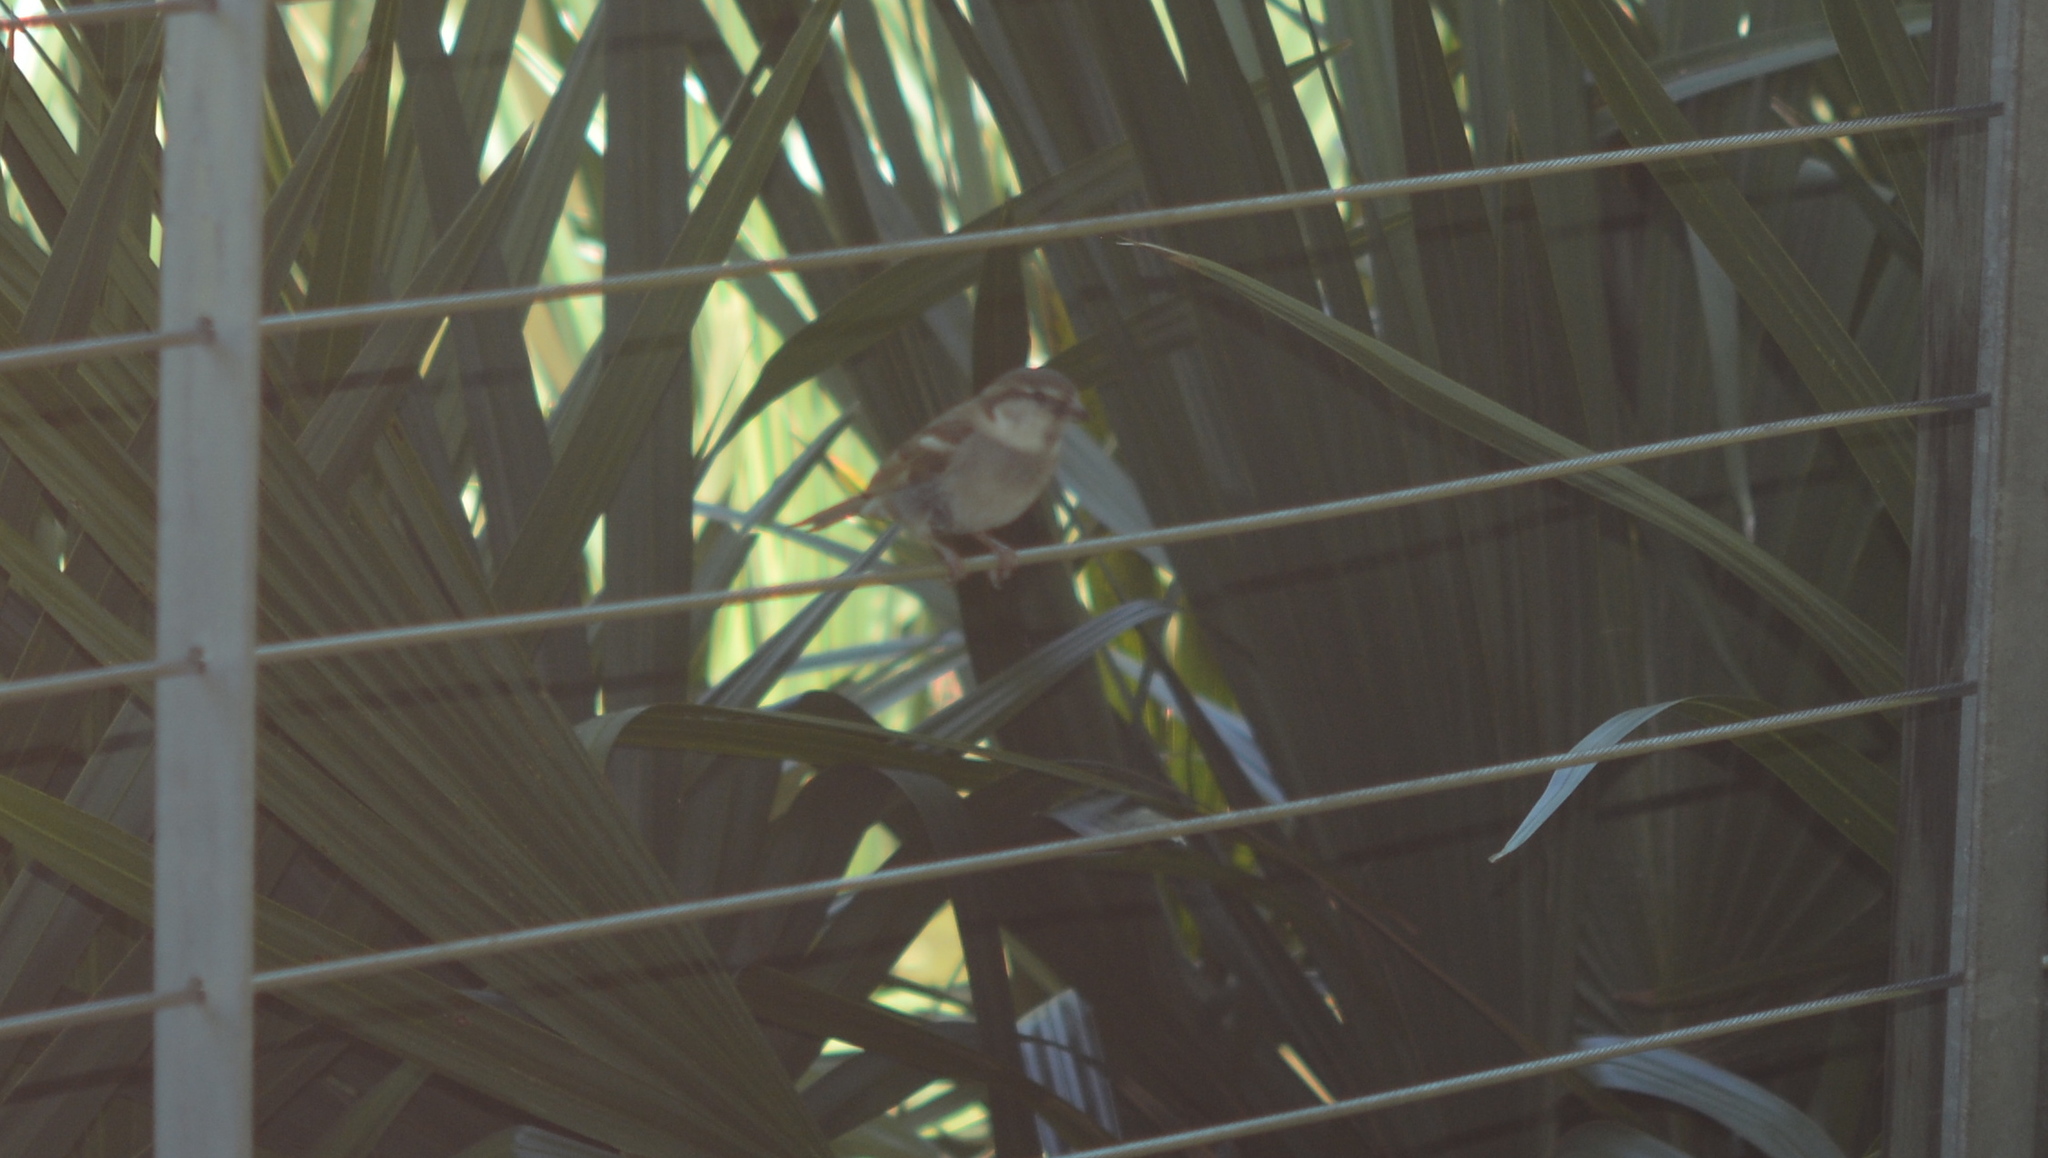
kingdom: Animalia
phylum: Chordata
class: Aves
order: Passeriformes
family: Passeridae
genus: Passer
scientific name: Passer domesticus
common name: House sparrow
